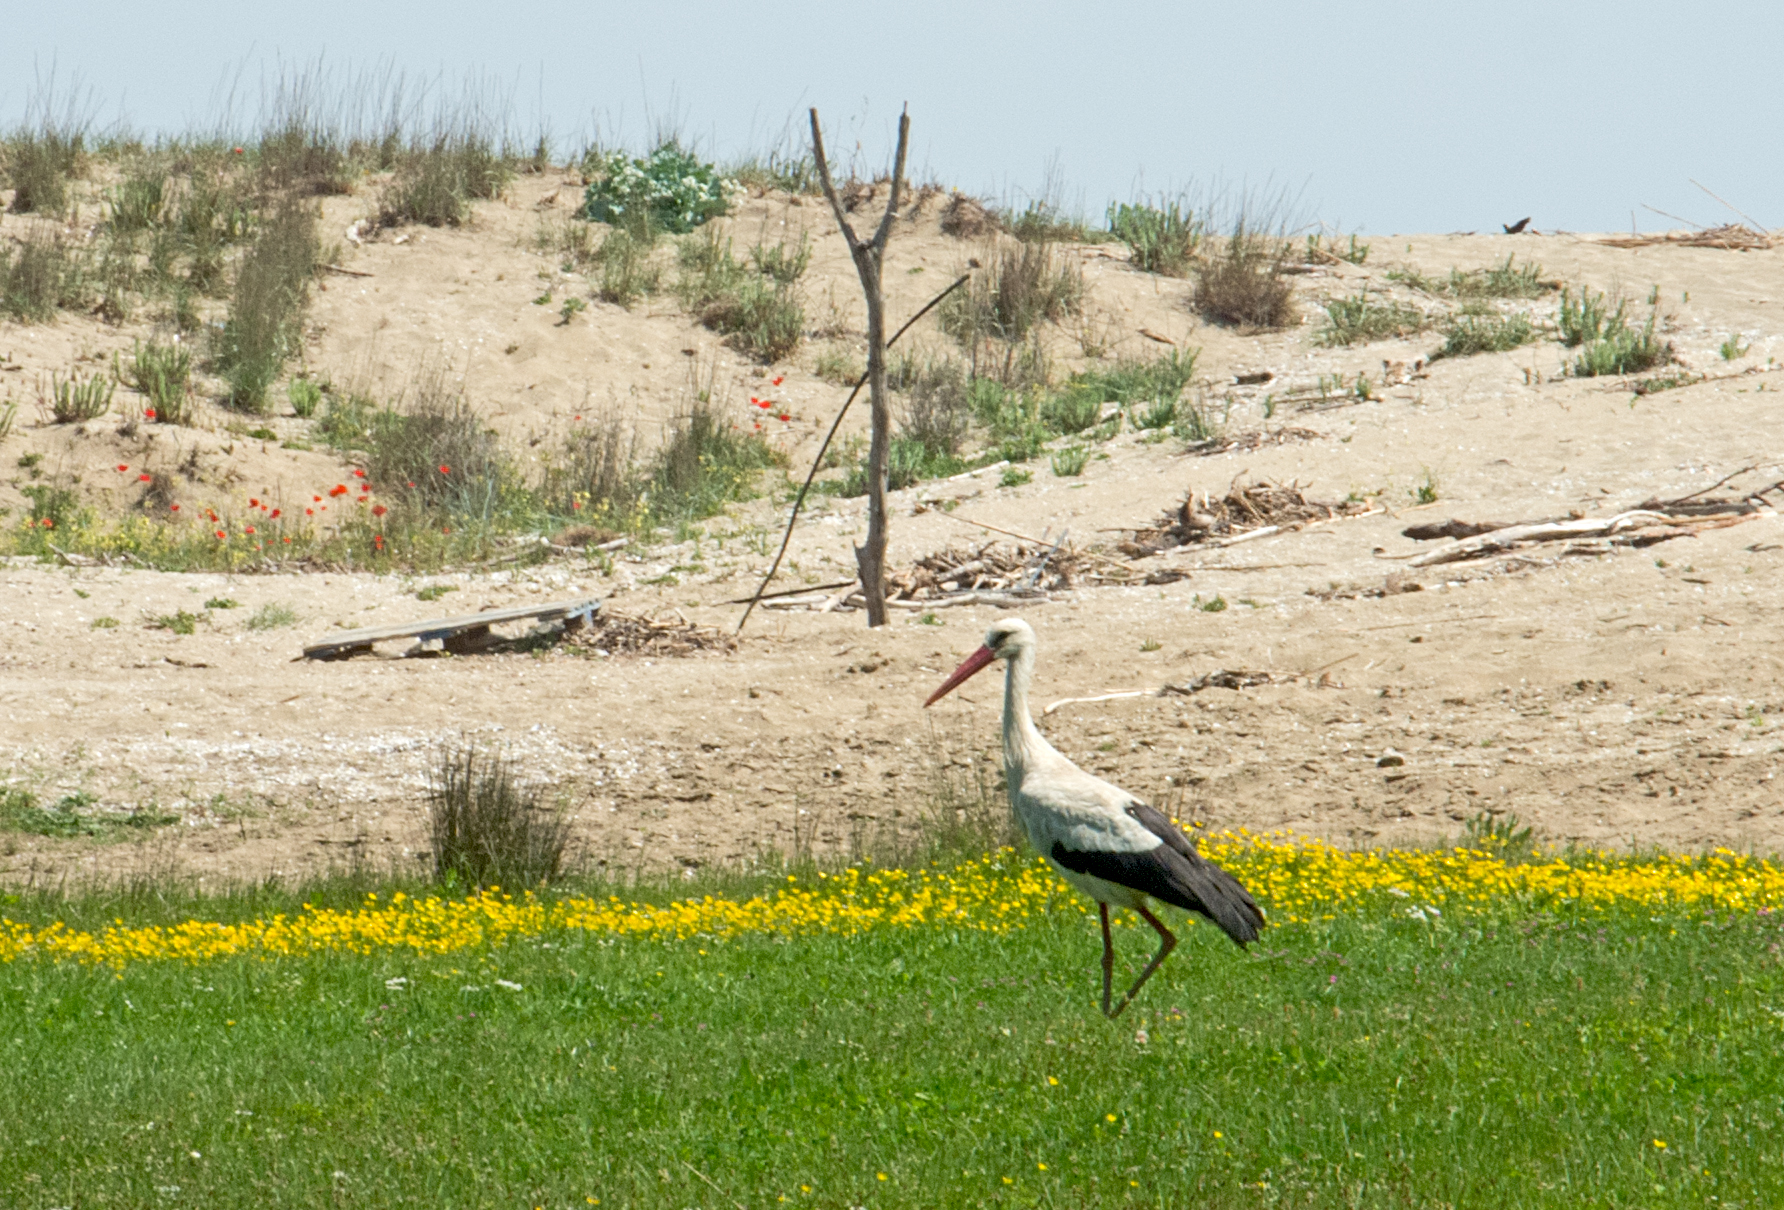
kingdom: Animalia
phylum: Chordata
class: Aves
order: Ciconiiformes
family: Ciconiidae
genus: Ciconia
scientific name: Ciconia ciconia
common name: White stork
